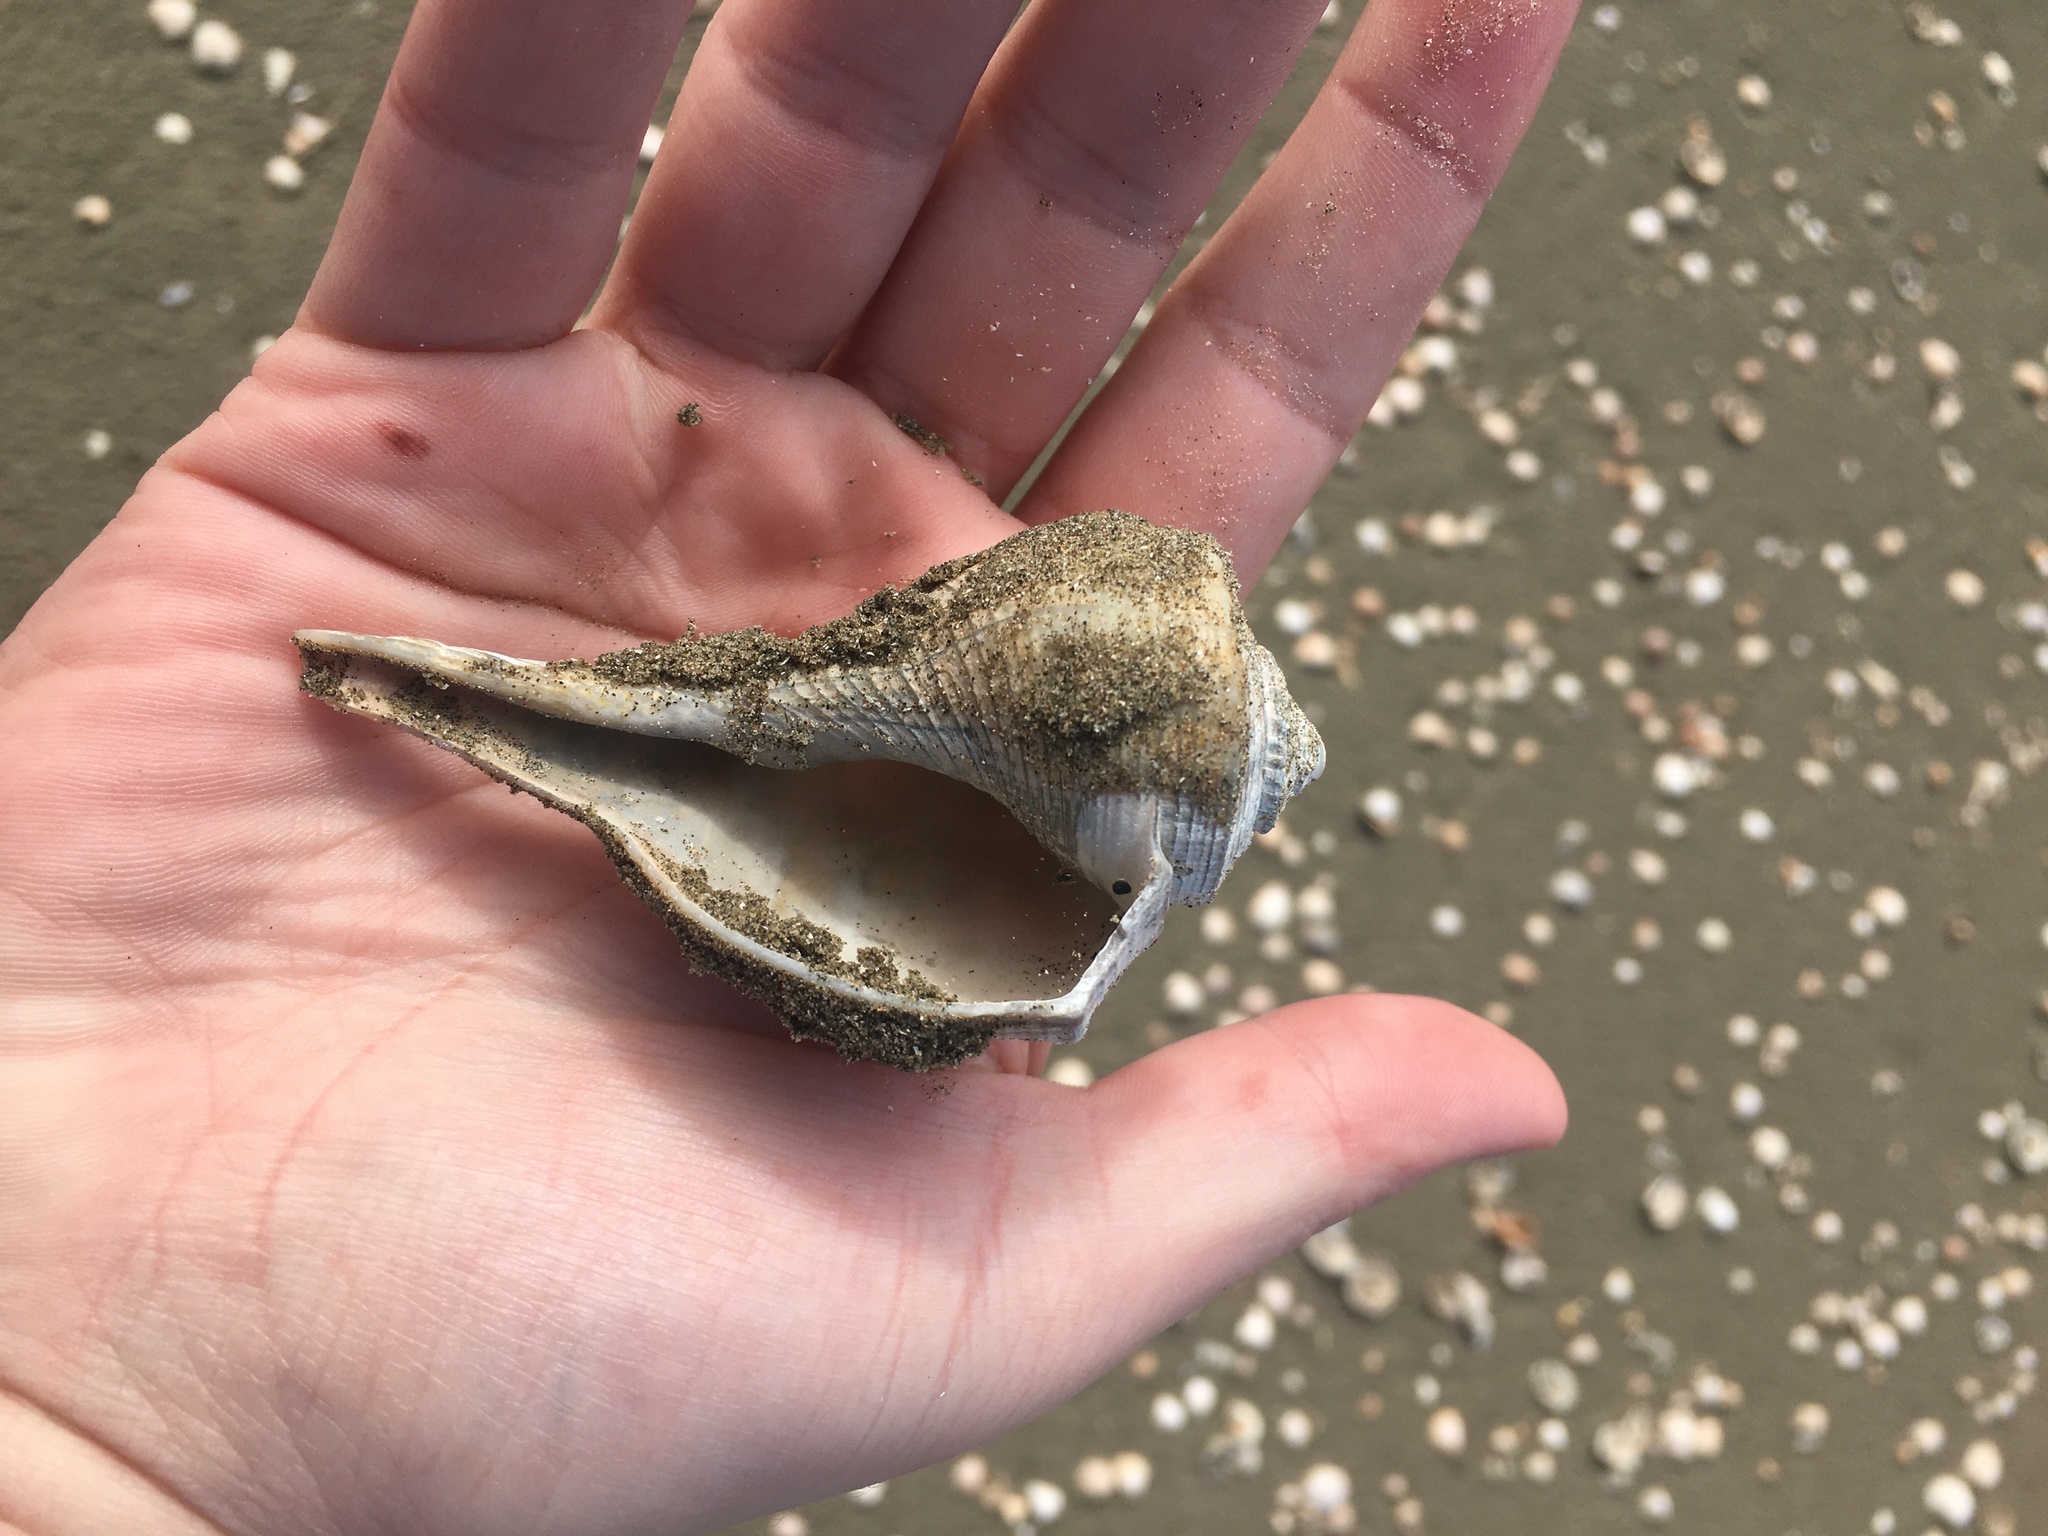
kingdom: Animalia
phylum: Mollusca
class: Gastropoda
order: Neogastropoda
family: Busyconidae
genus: Fulguropsis
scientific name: Fulguropsis plagosa
